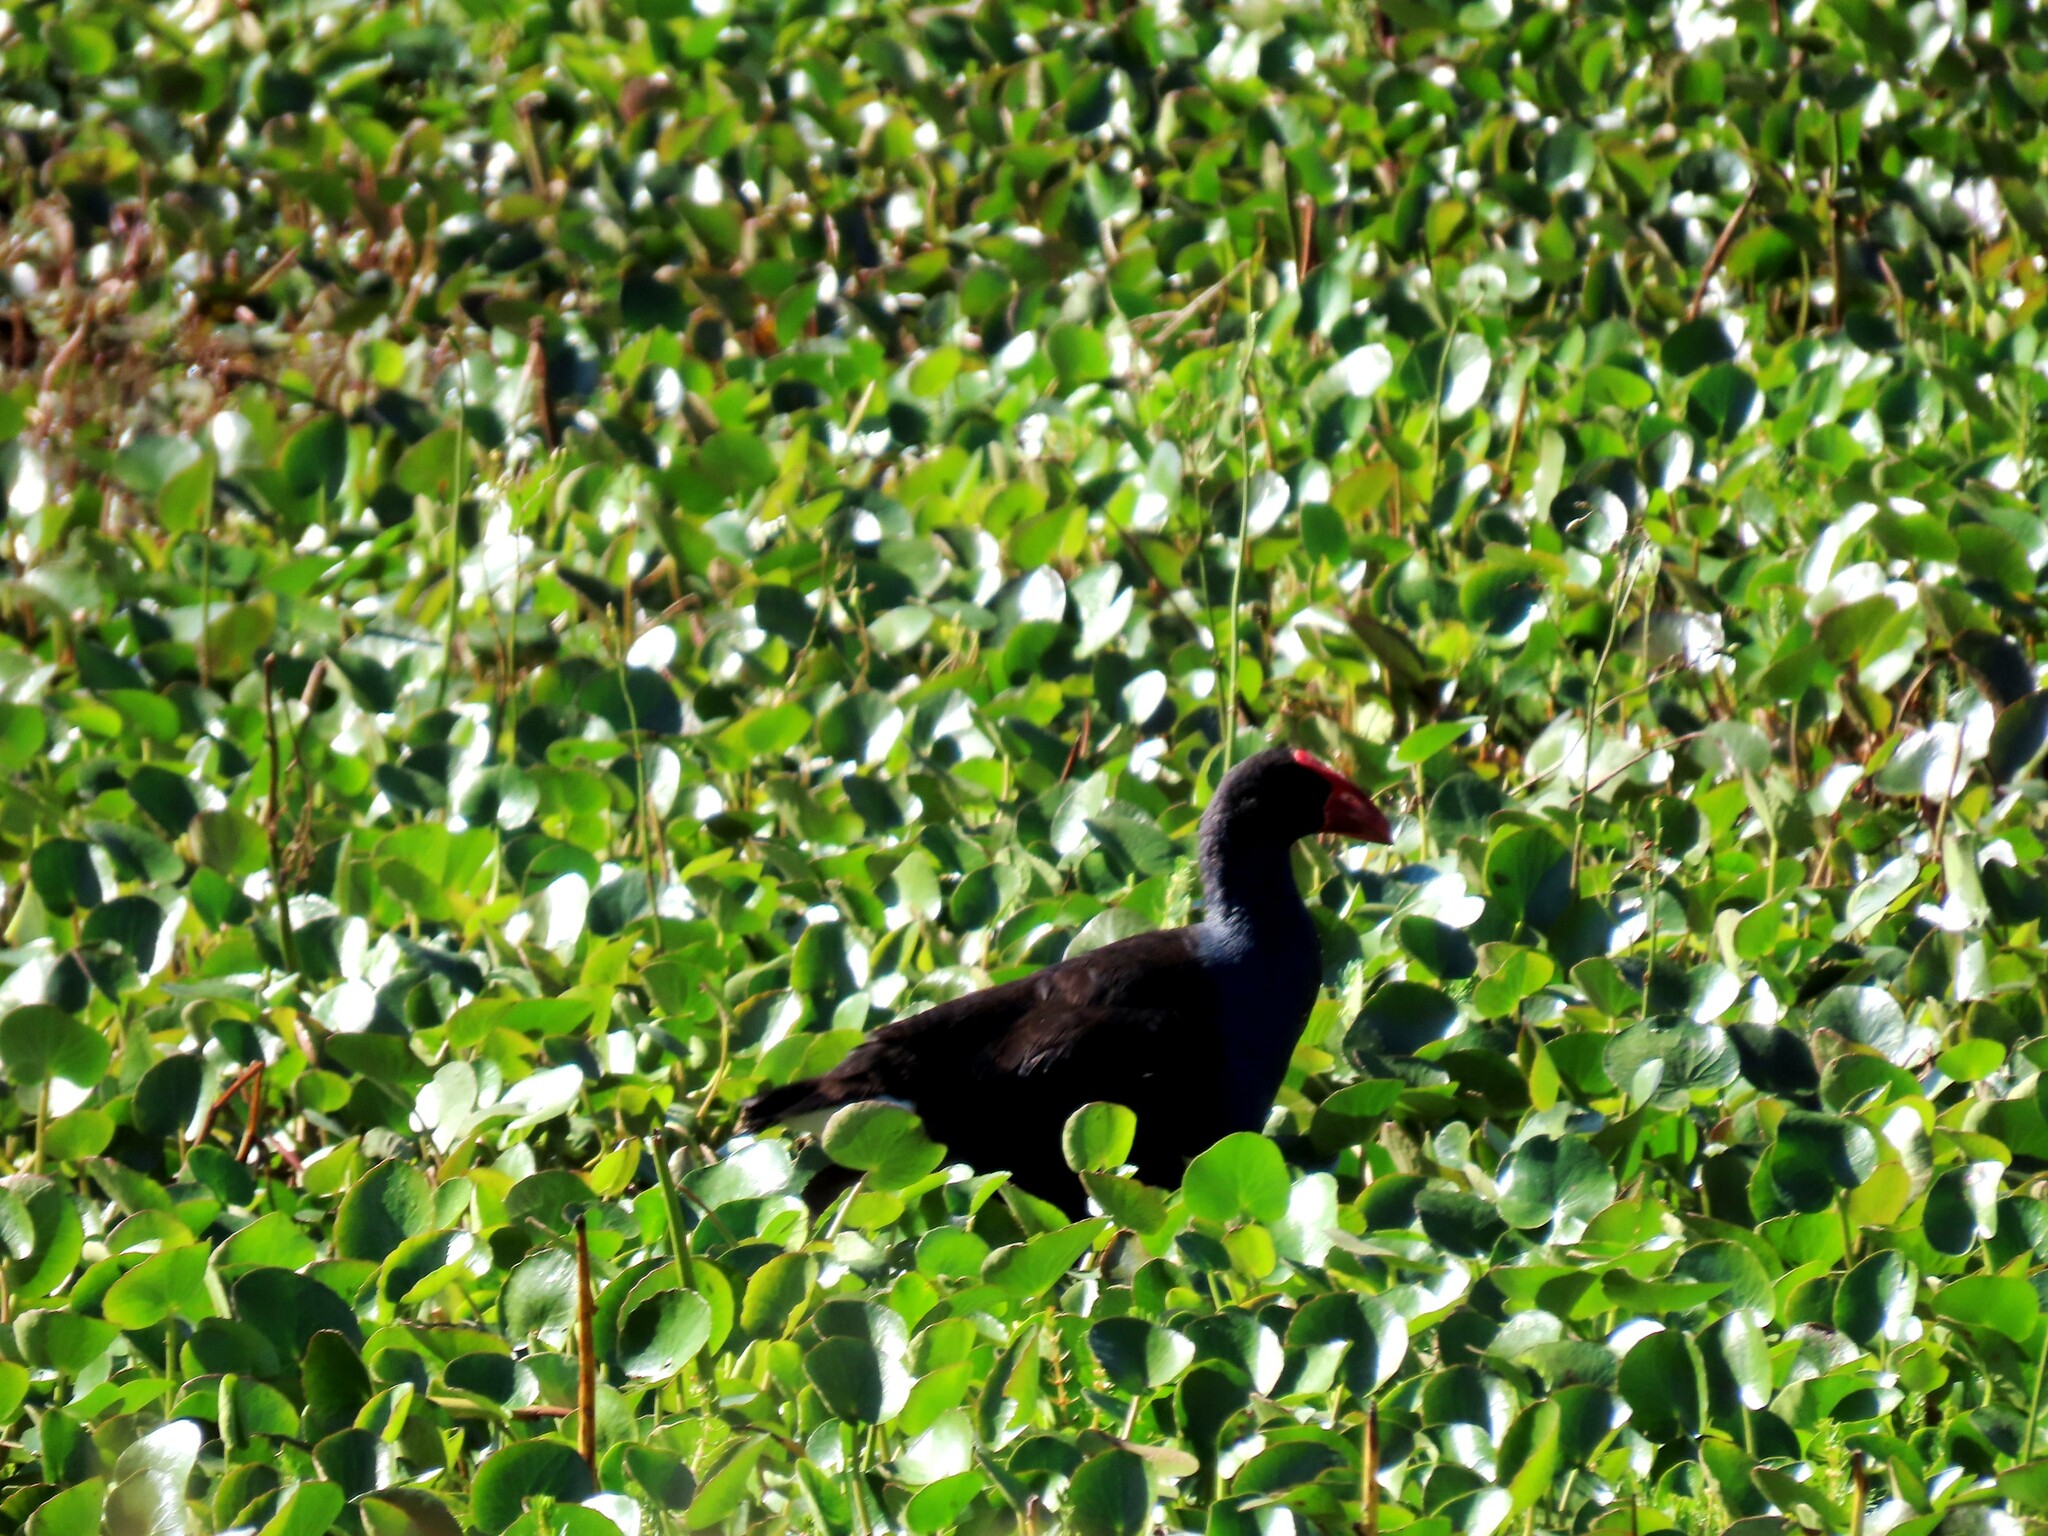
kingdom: Animalia
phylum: Chordata
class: Aves
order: Gruiformes
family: Rallidae
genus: Porphyrio
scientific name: Porphyrio melanotus
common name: Australasian swamphen
